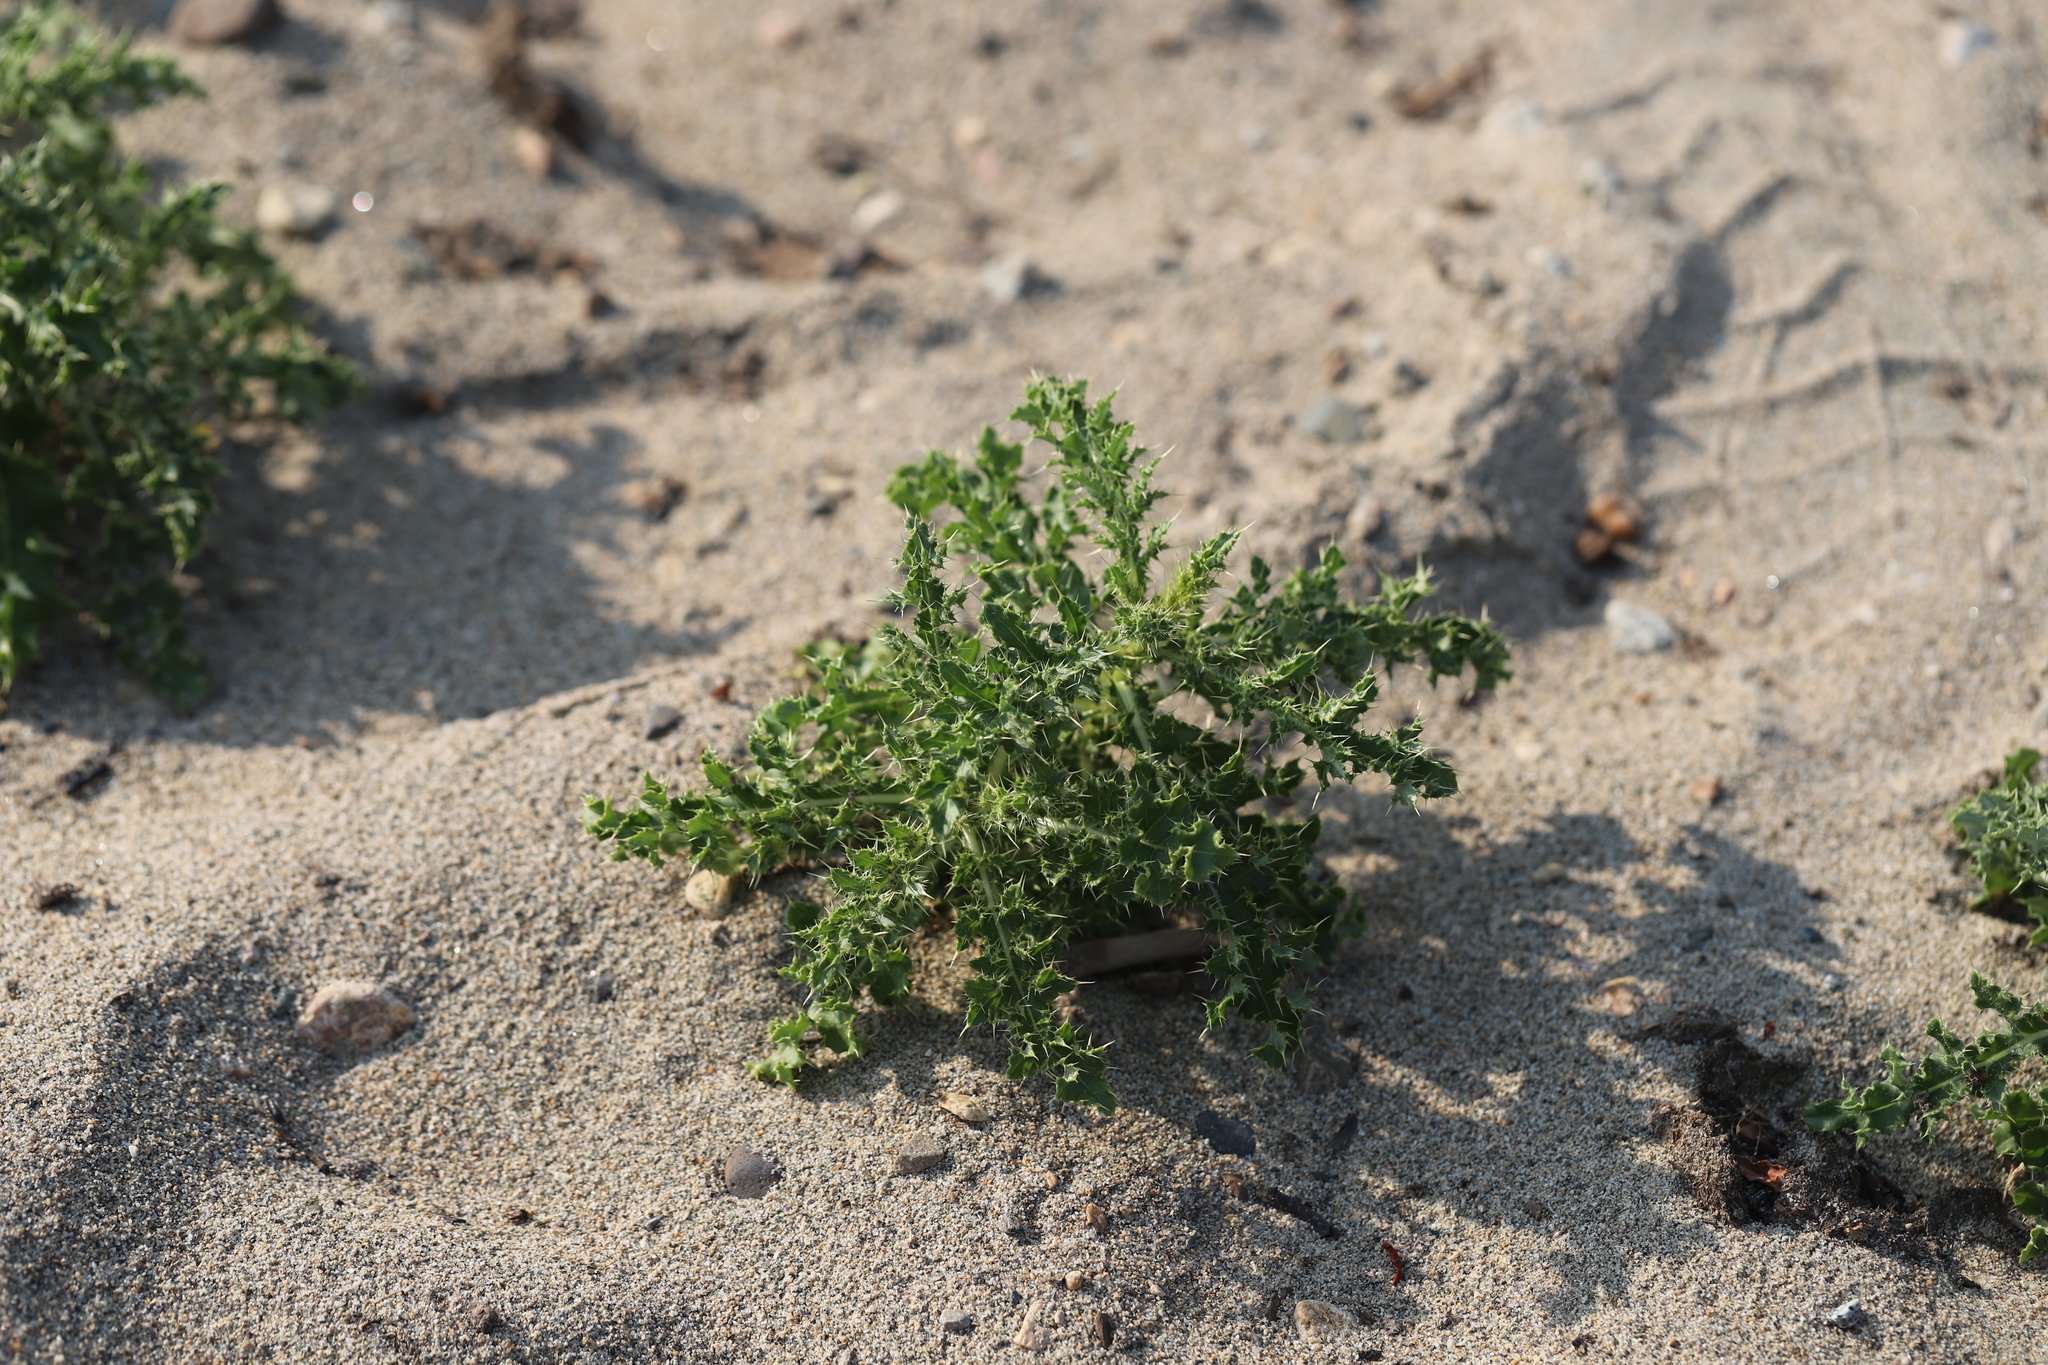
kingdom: Plantae
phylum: Tracheophyta
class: Magnoliopsida
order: Asterales
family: Asteraceae
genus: Cirsium
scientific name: Cirsium arvense
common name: Creeping thistle
